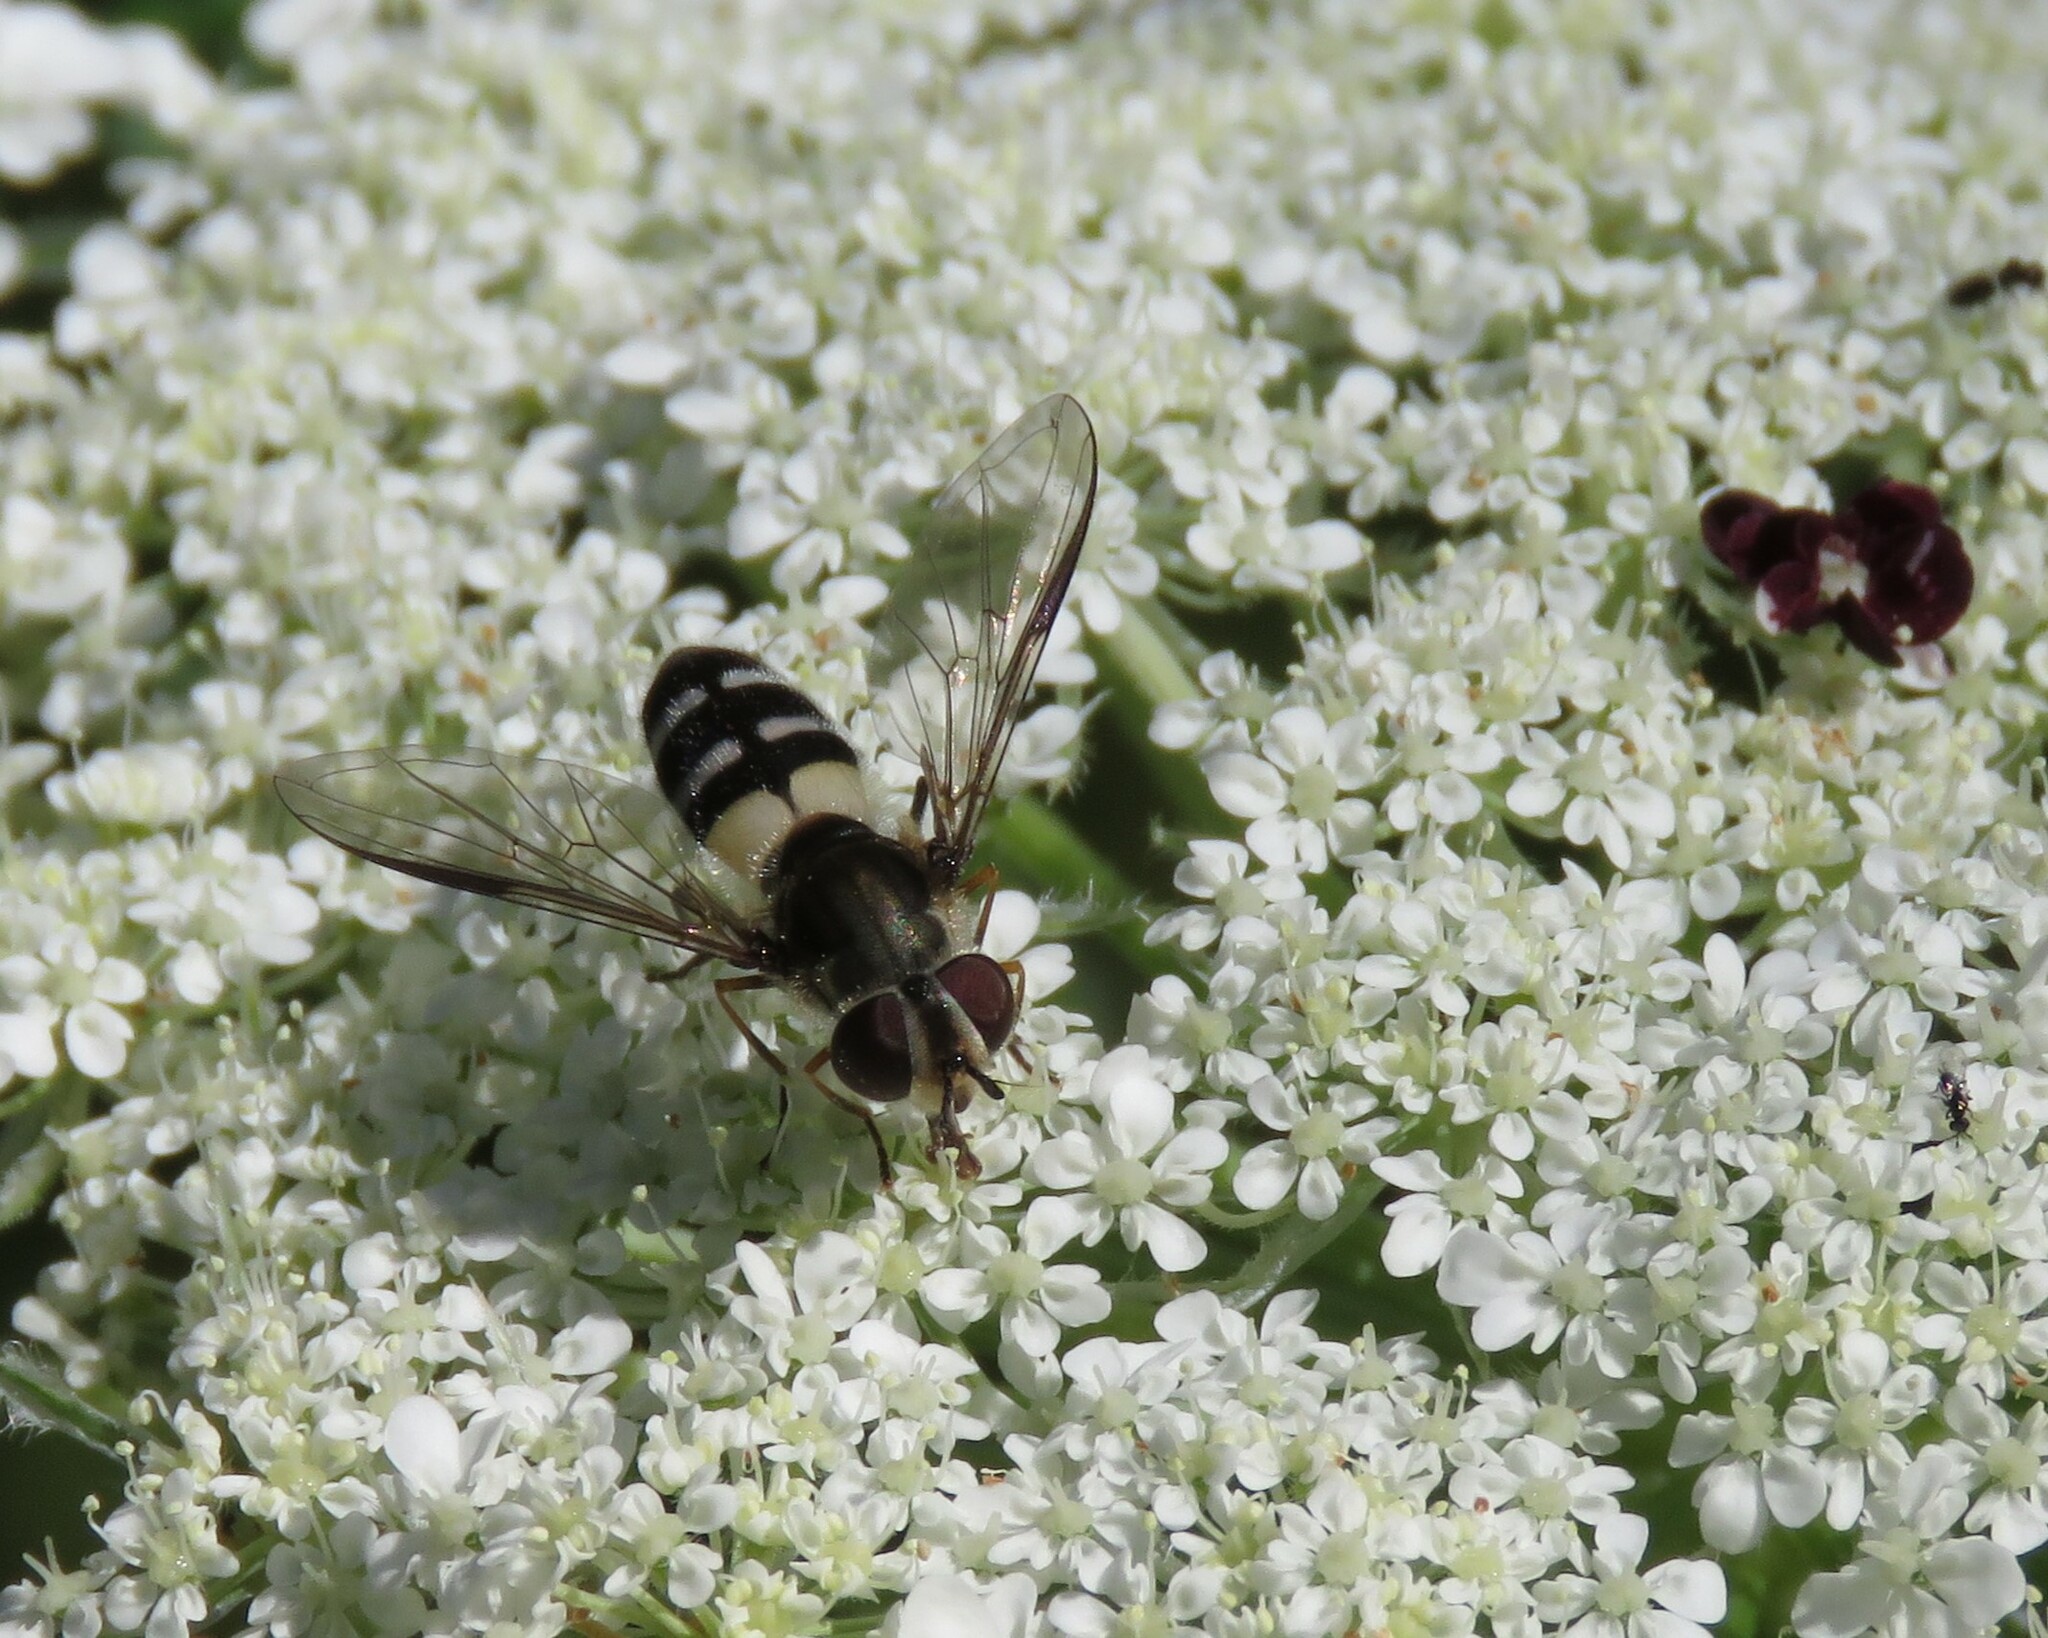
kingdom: Animalia
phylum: Arthropoda
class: Insecta
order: Diptera
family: Syrphidae
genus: Leucozona
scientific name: Leucozona laternaria
